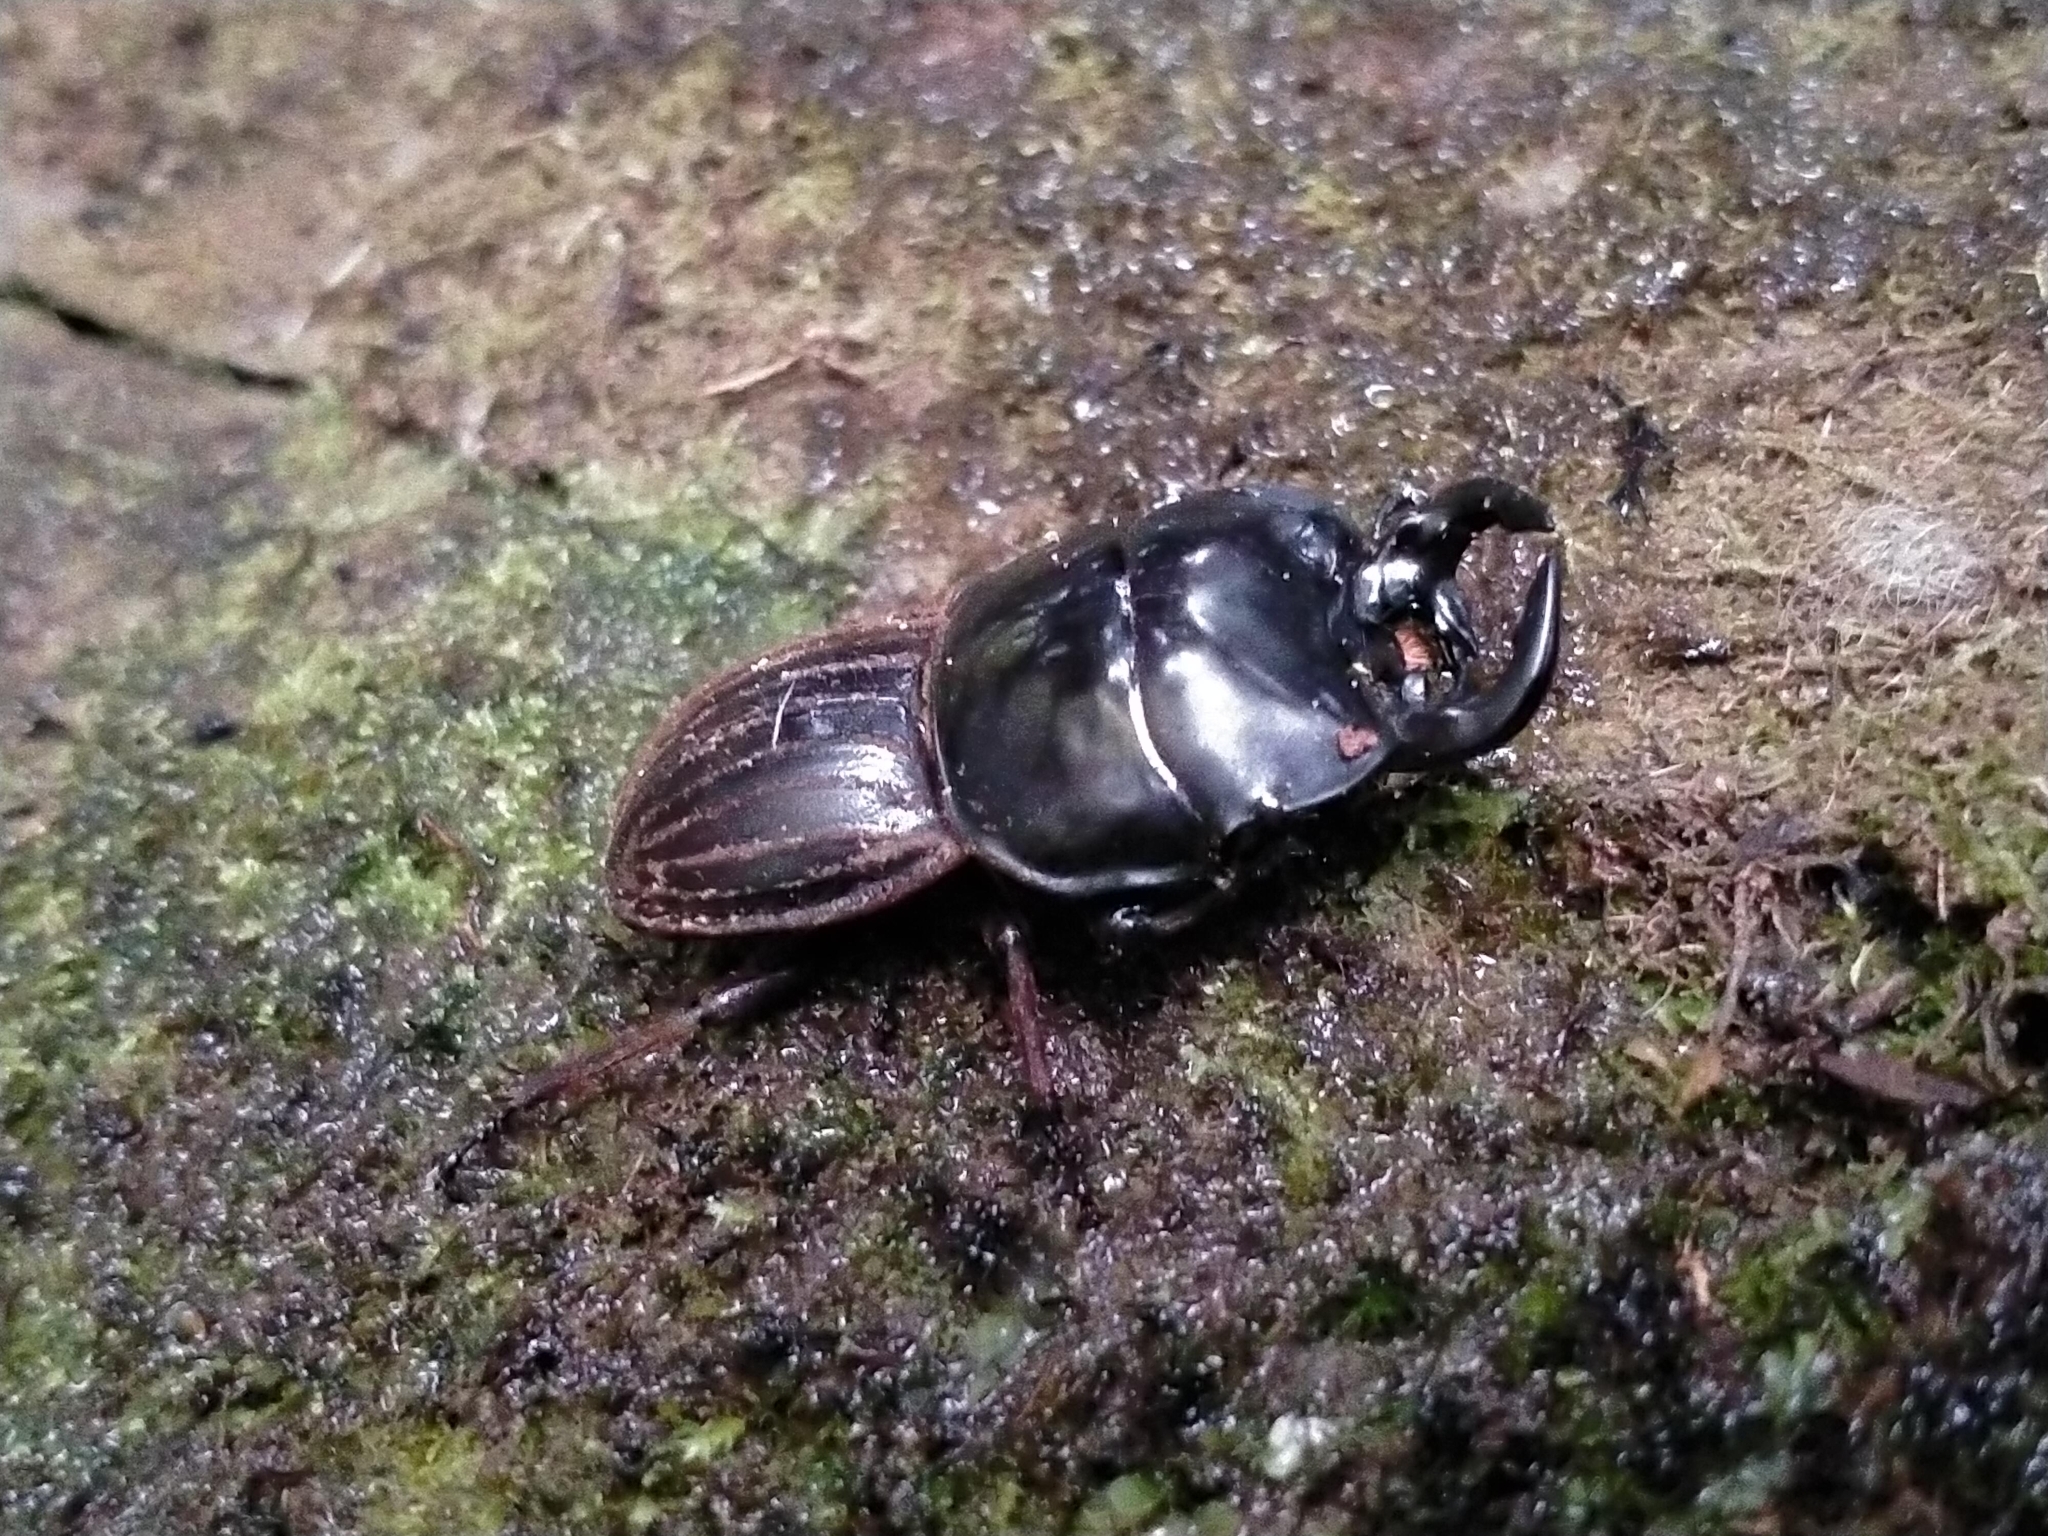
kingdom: Animalia
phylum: Arthropoda
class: Insecta
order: Coleoptera
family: Lucanidae
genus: Geodorcus
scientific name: Geodorcus helmsi
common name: Helm's stag beetle
